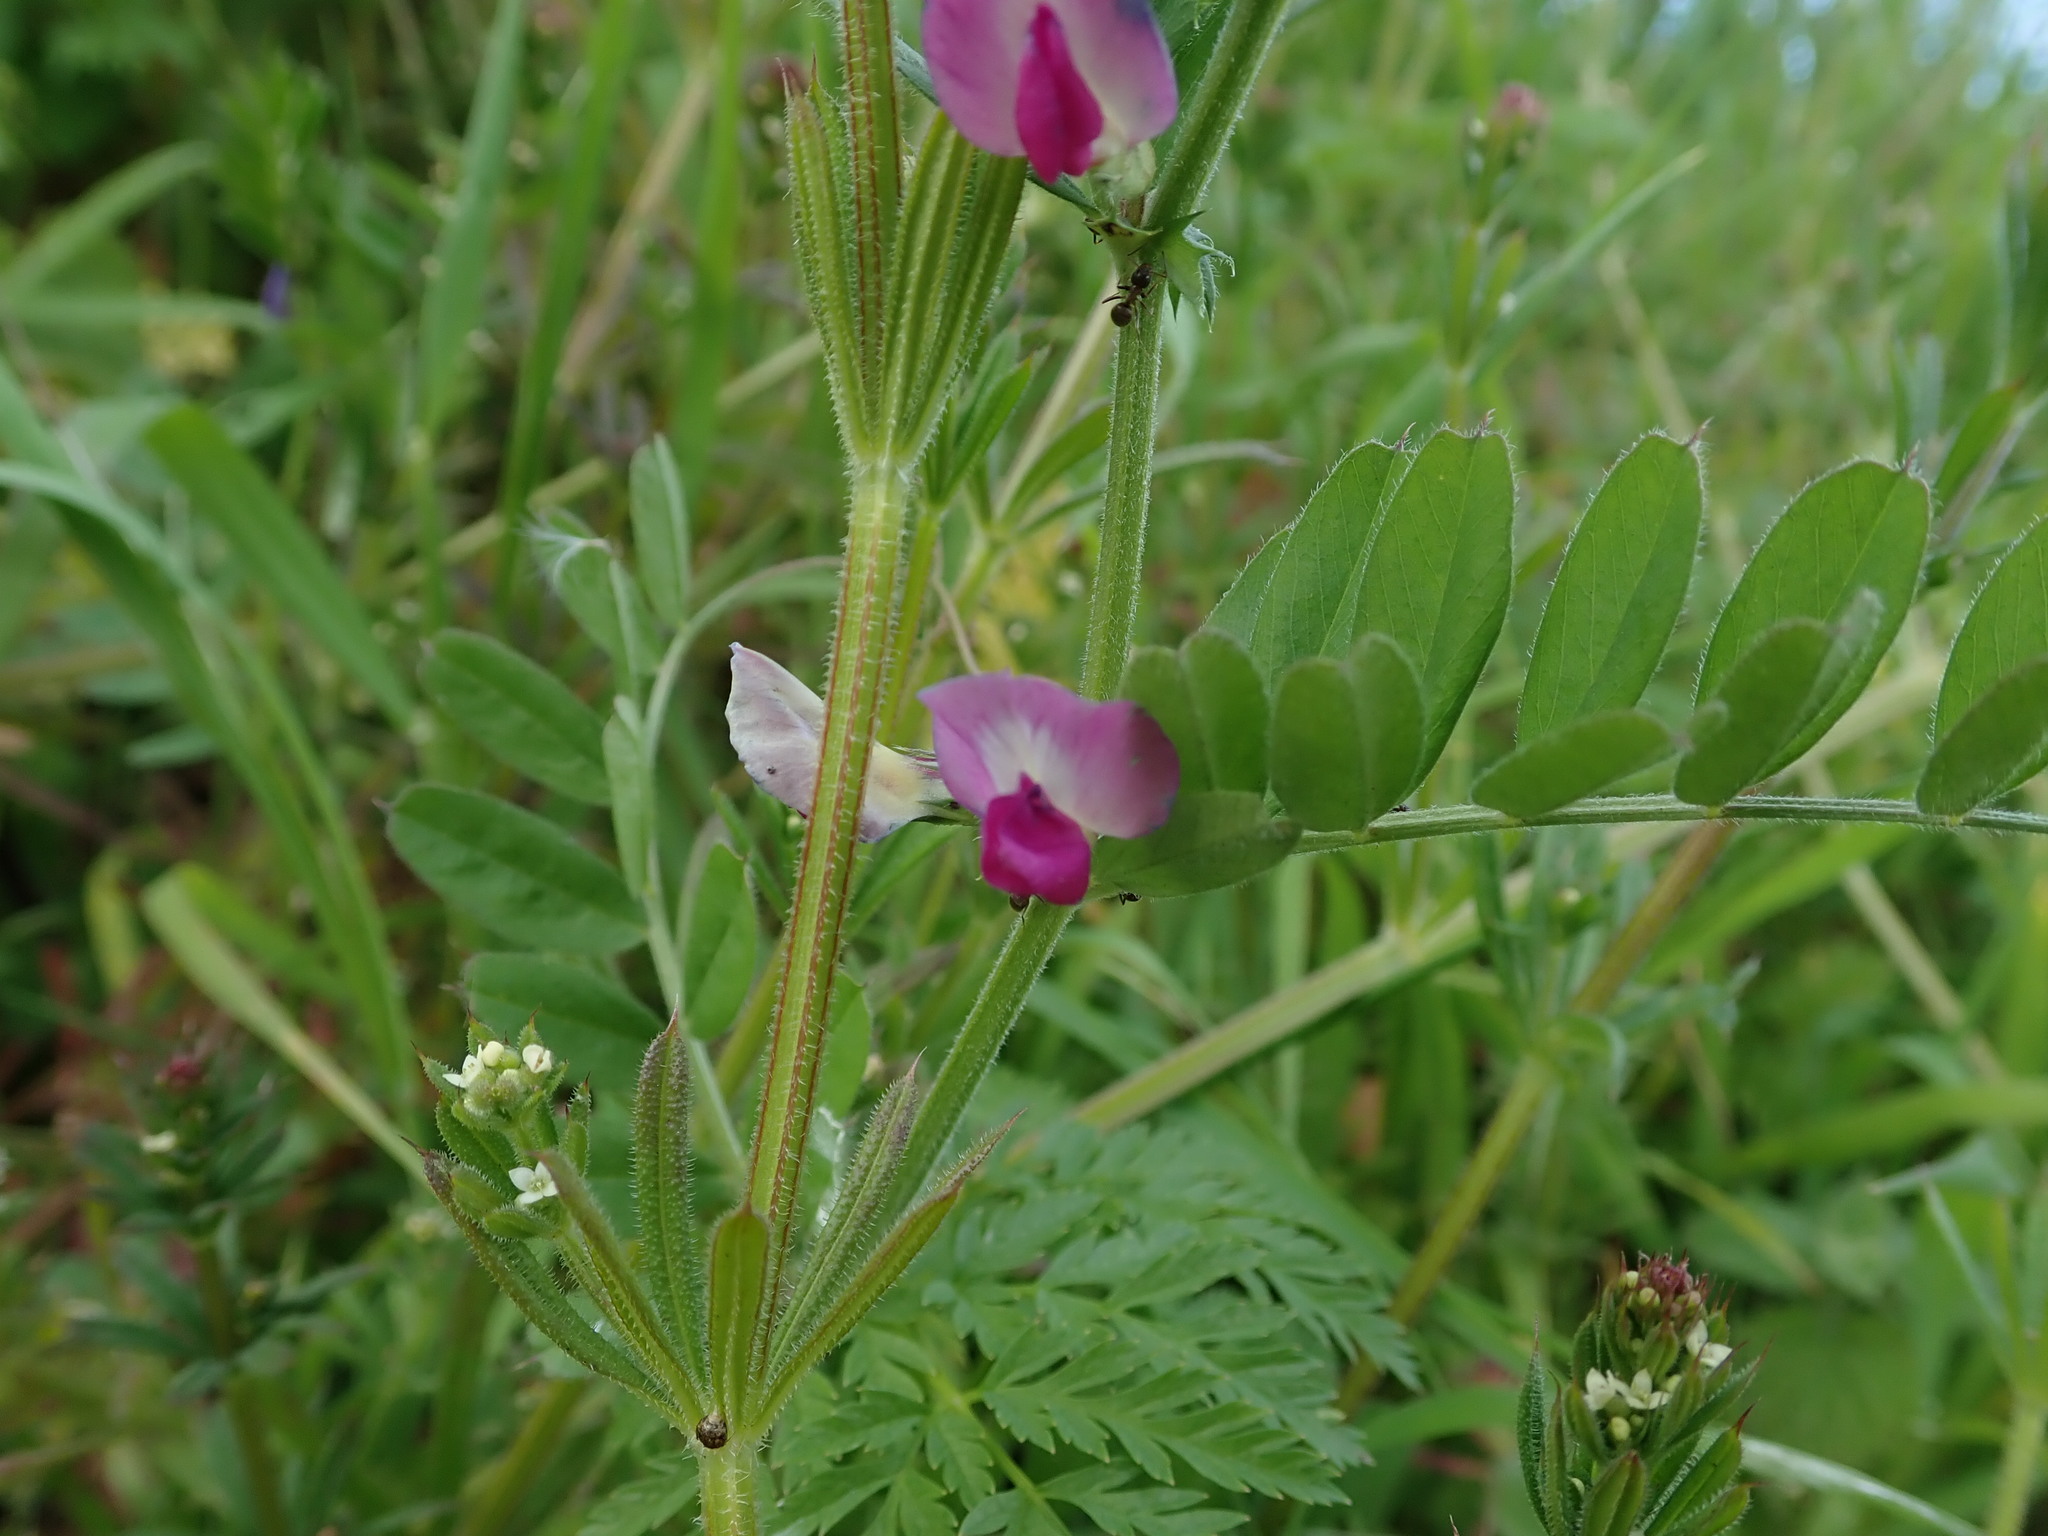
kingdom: Plantae
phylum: Tracheophyta
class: Magnoliopsida
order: Fabales
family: Fabaceae
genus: Vicia
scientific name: Vicia sativa
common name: Garden vetch
